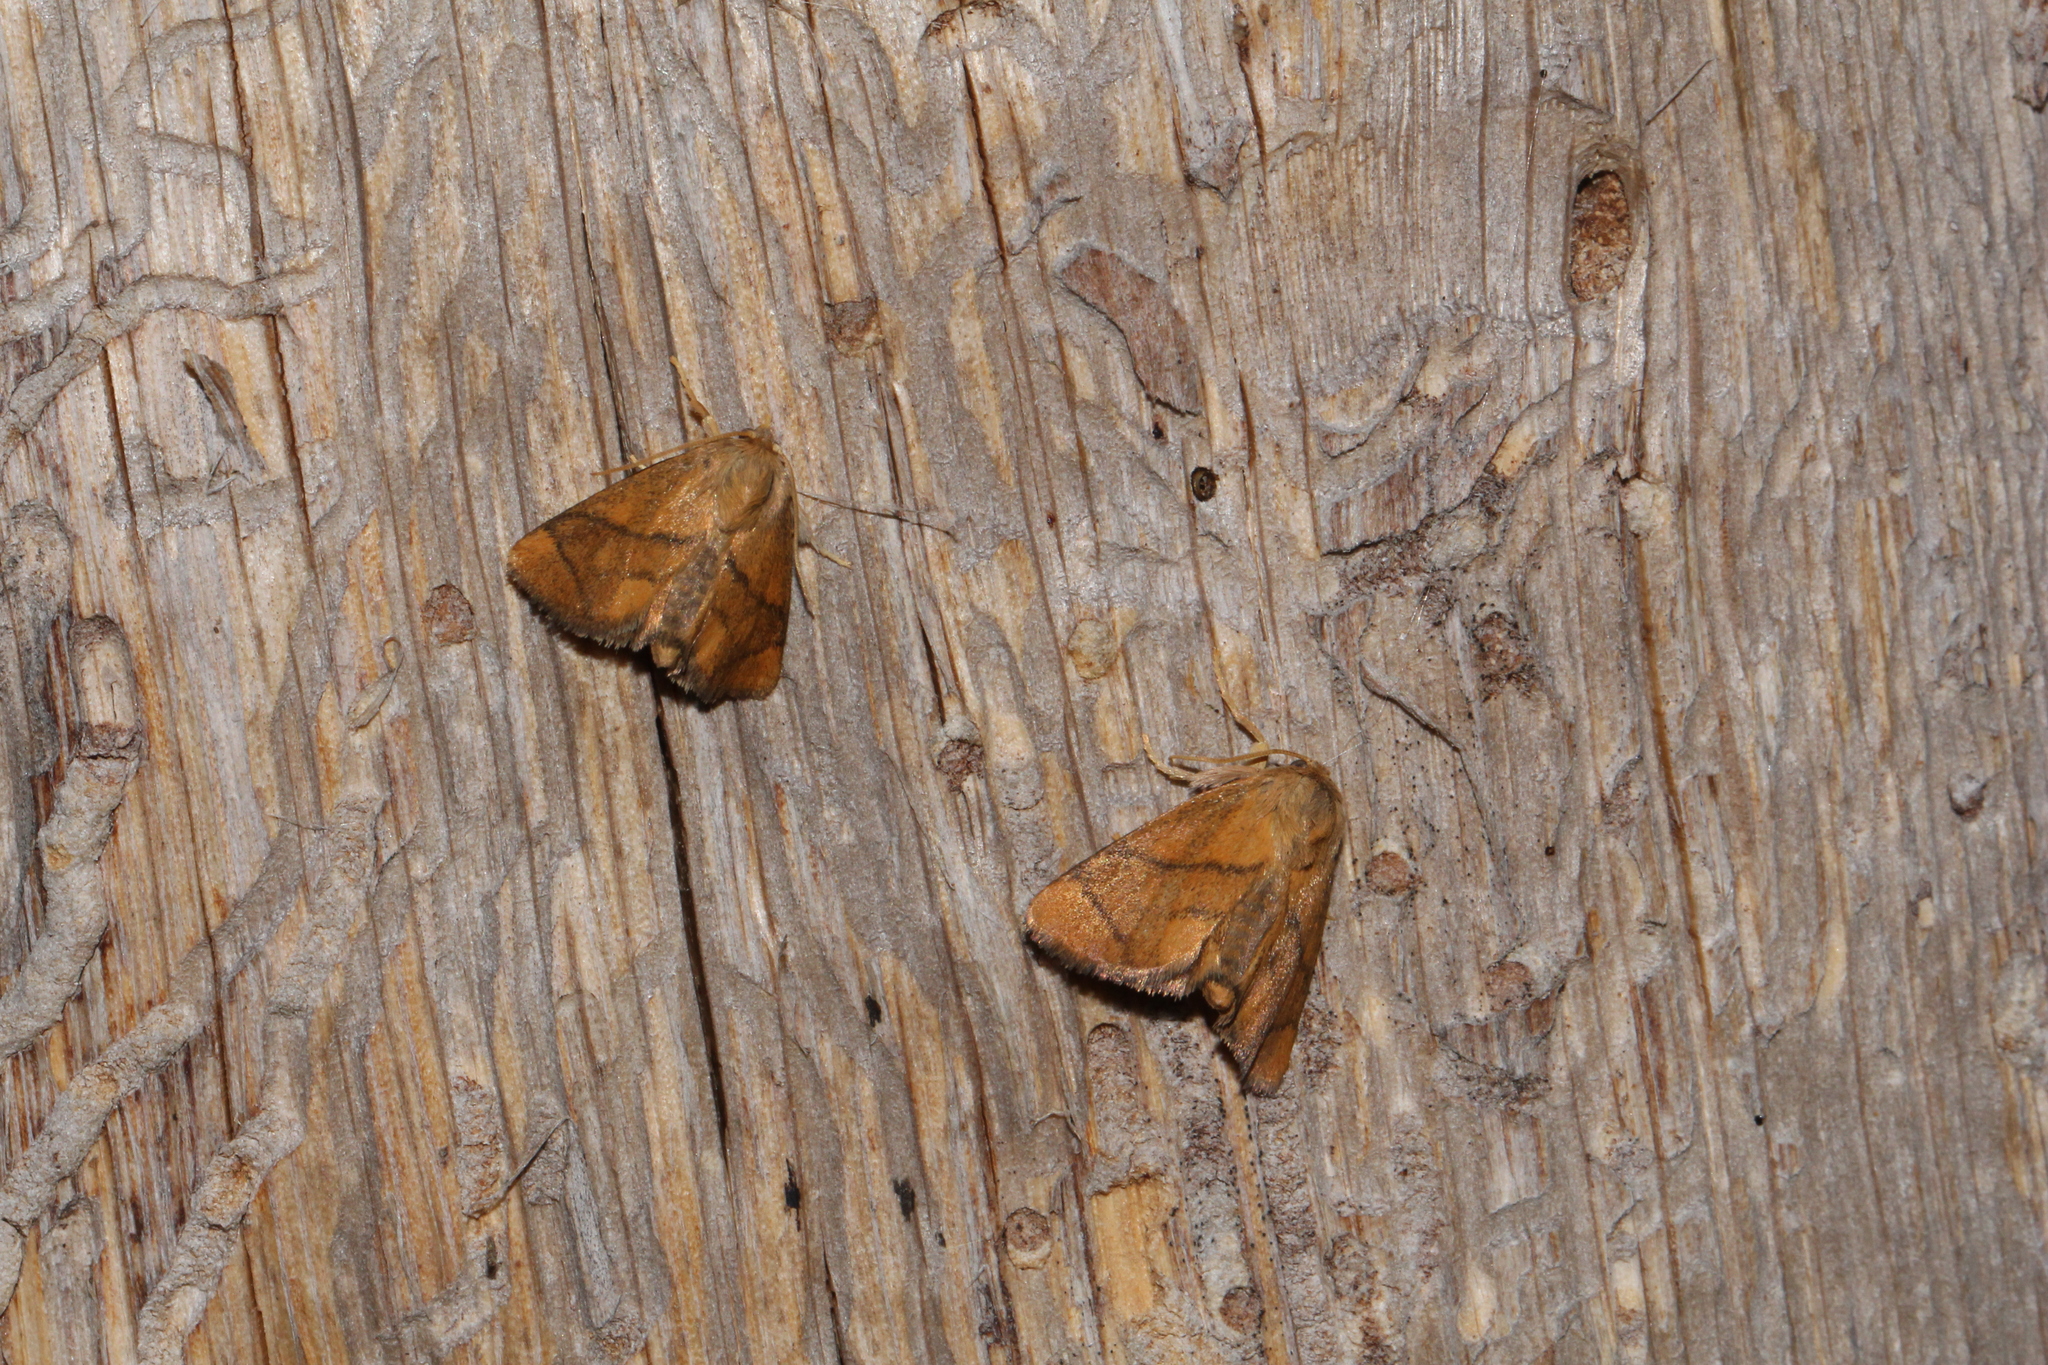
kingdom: Animalia
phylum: Arthropoda
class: Insecta
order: Lepidoptera
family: Limacodidae
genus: Apoda
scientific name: Apoda limacodes
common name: Festoon
